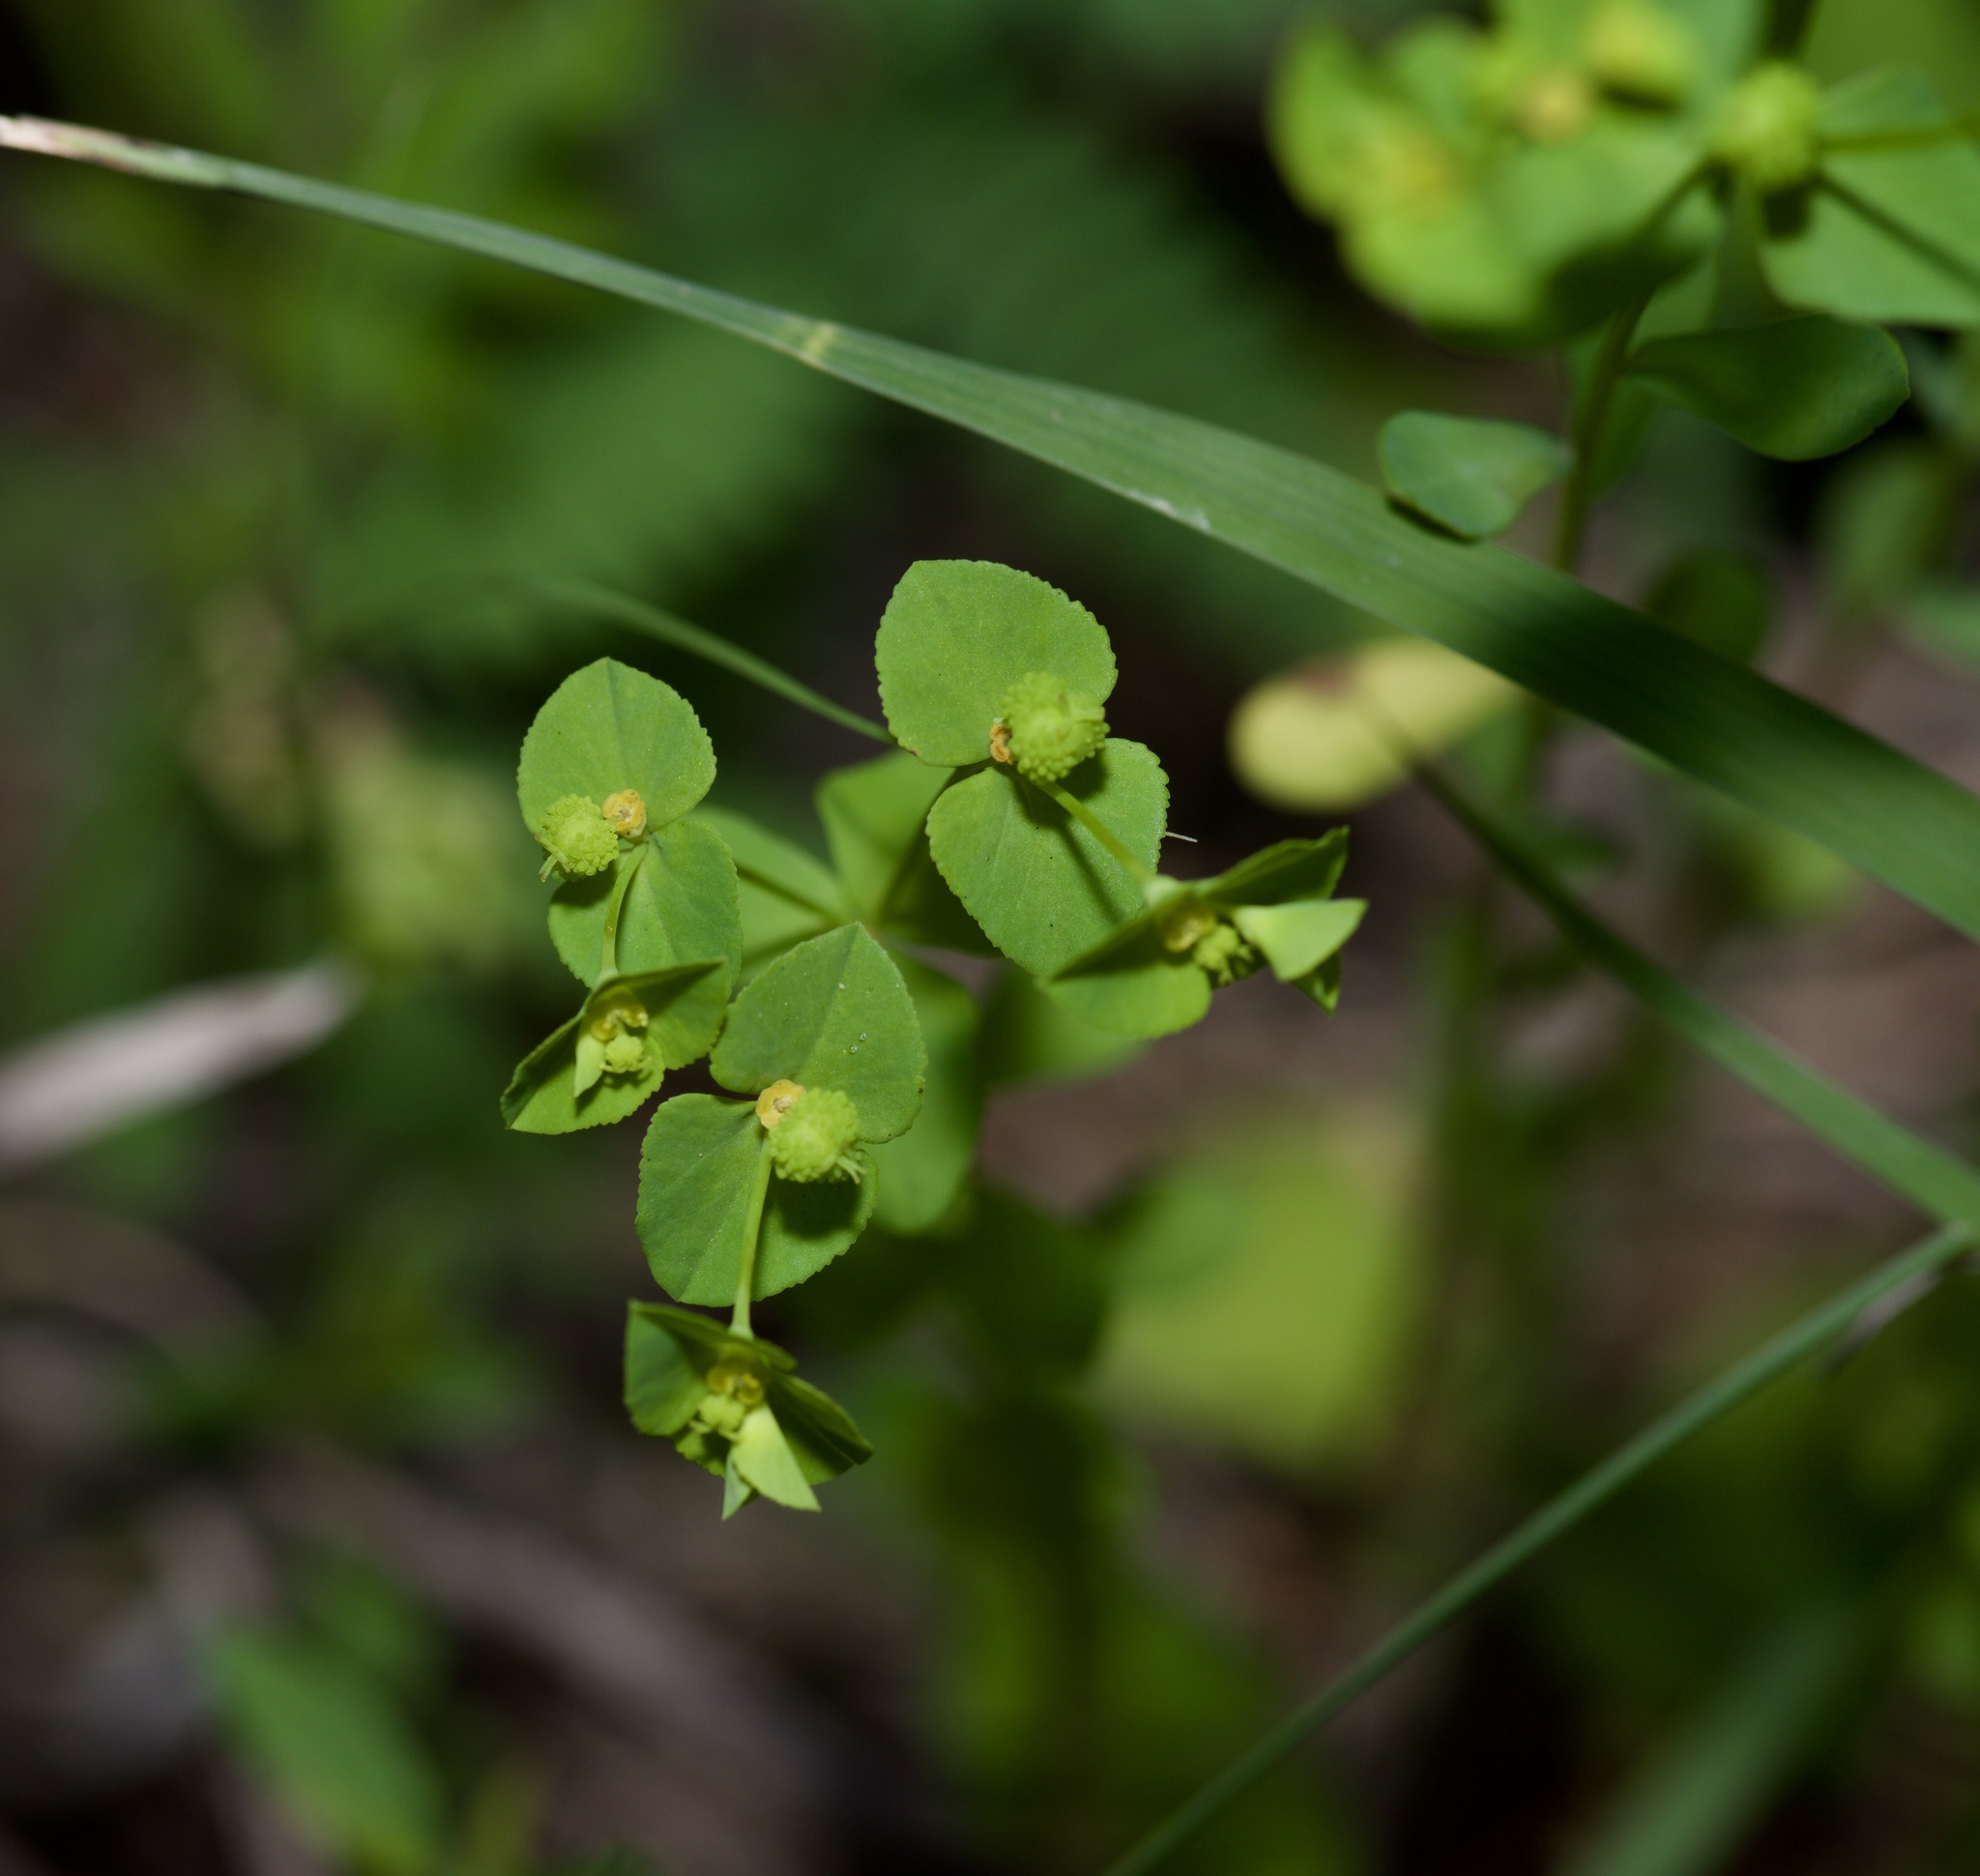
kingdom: Plantae
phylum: Tracheophyta
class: Magnoliopsida
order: Malpighiales
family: Euphorbiaceae
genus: Euphorbia
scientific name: Euphorbia spathulata
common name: Blunt spurge
